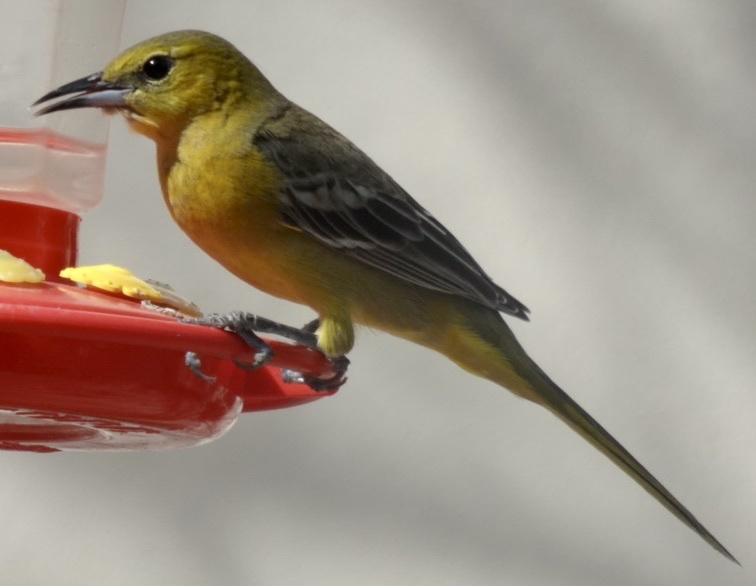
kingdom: Animalia
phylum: Chordata
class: Aves
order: Passeriformes
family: Icteridae
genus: Icterus
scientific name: Icterus cucullatus
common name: Hooded oriole
